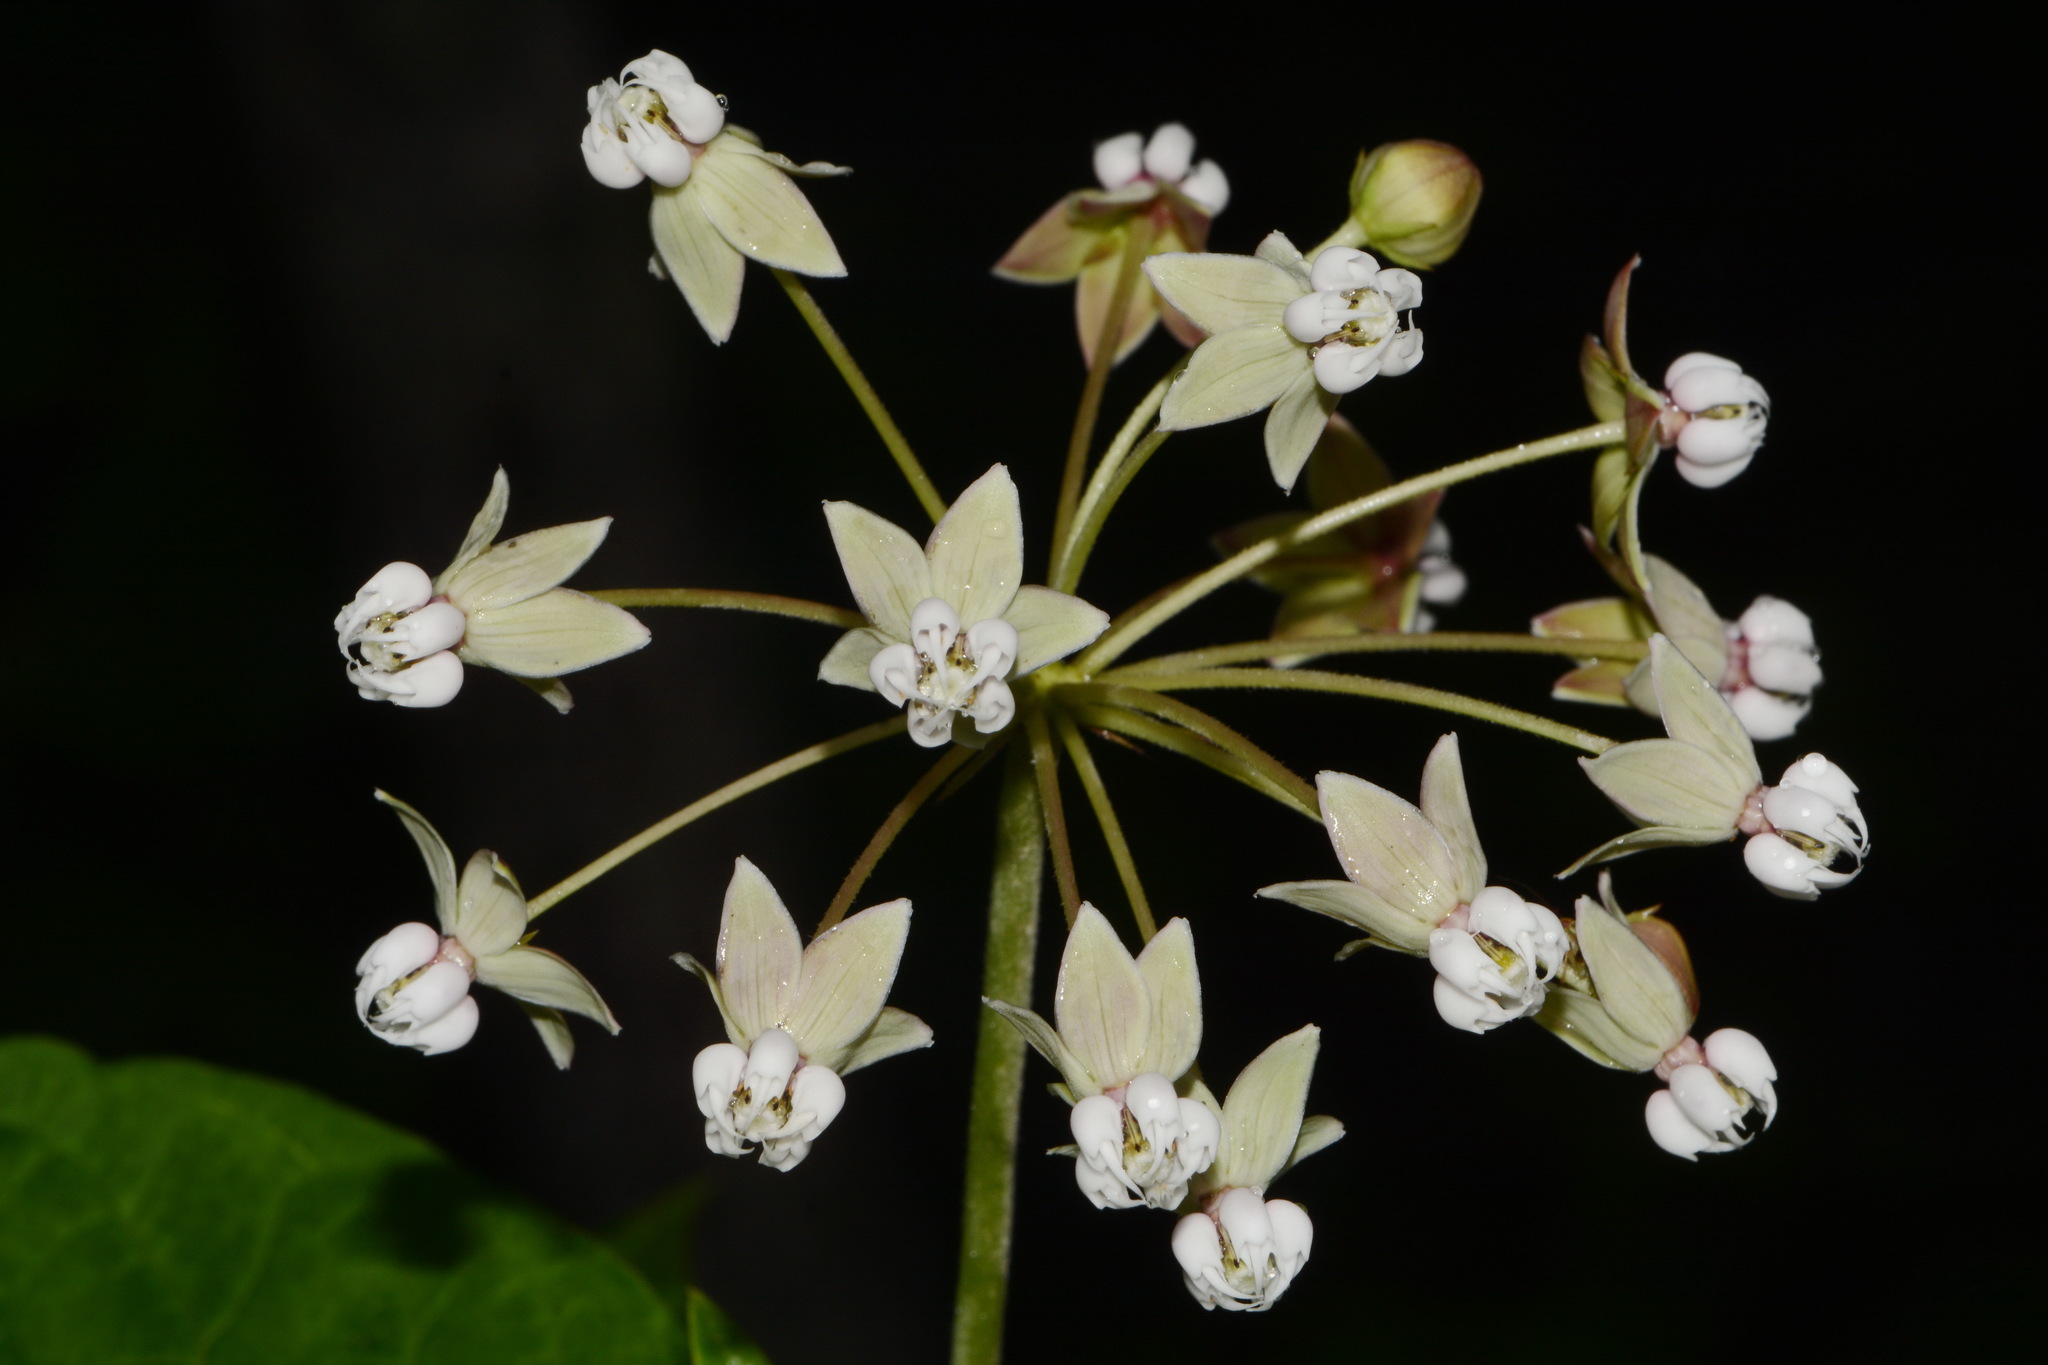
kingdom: Plantae
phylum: Tracheophyta
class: Magnoliopsida
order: Gentianales
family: Apocynaceae
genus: Asclepias
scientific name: Asclepias exaltata
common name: Poke milkweed
